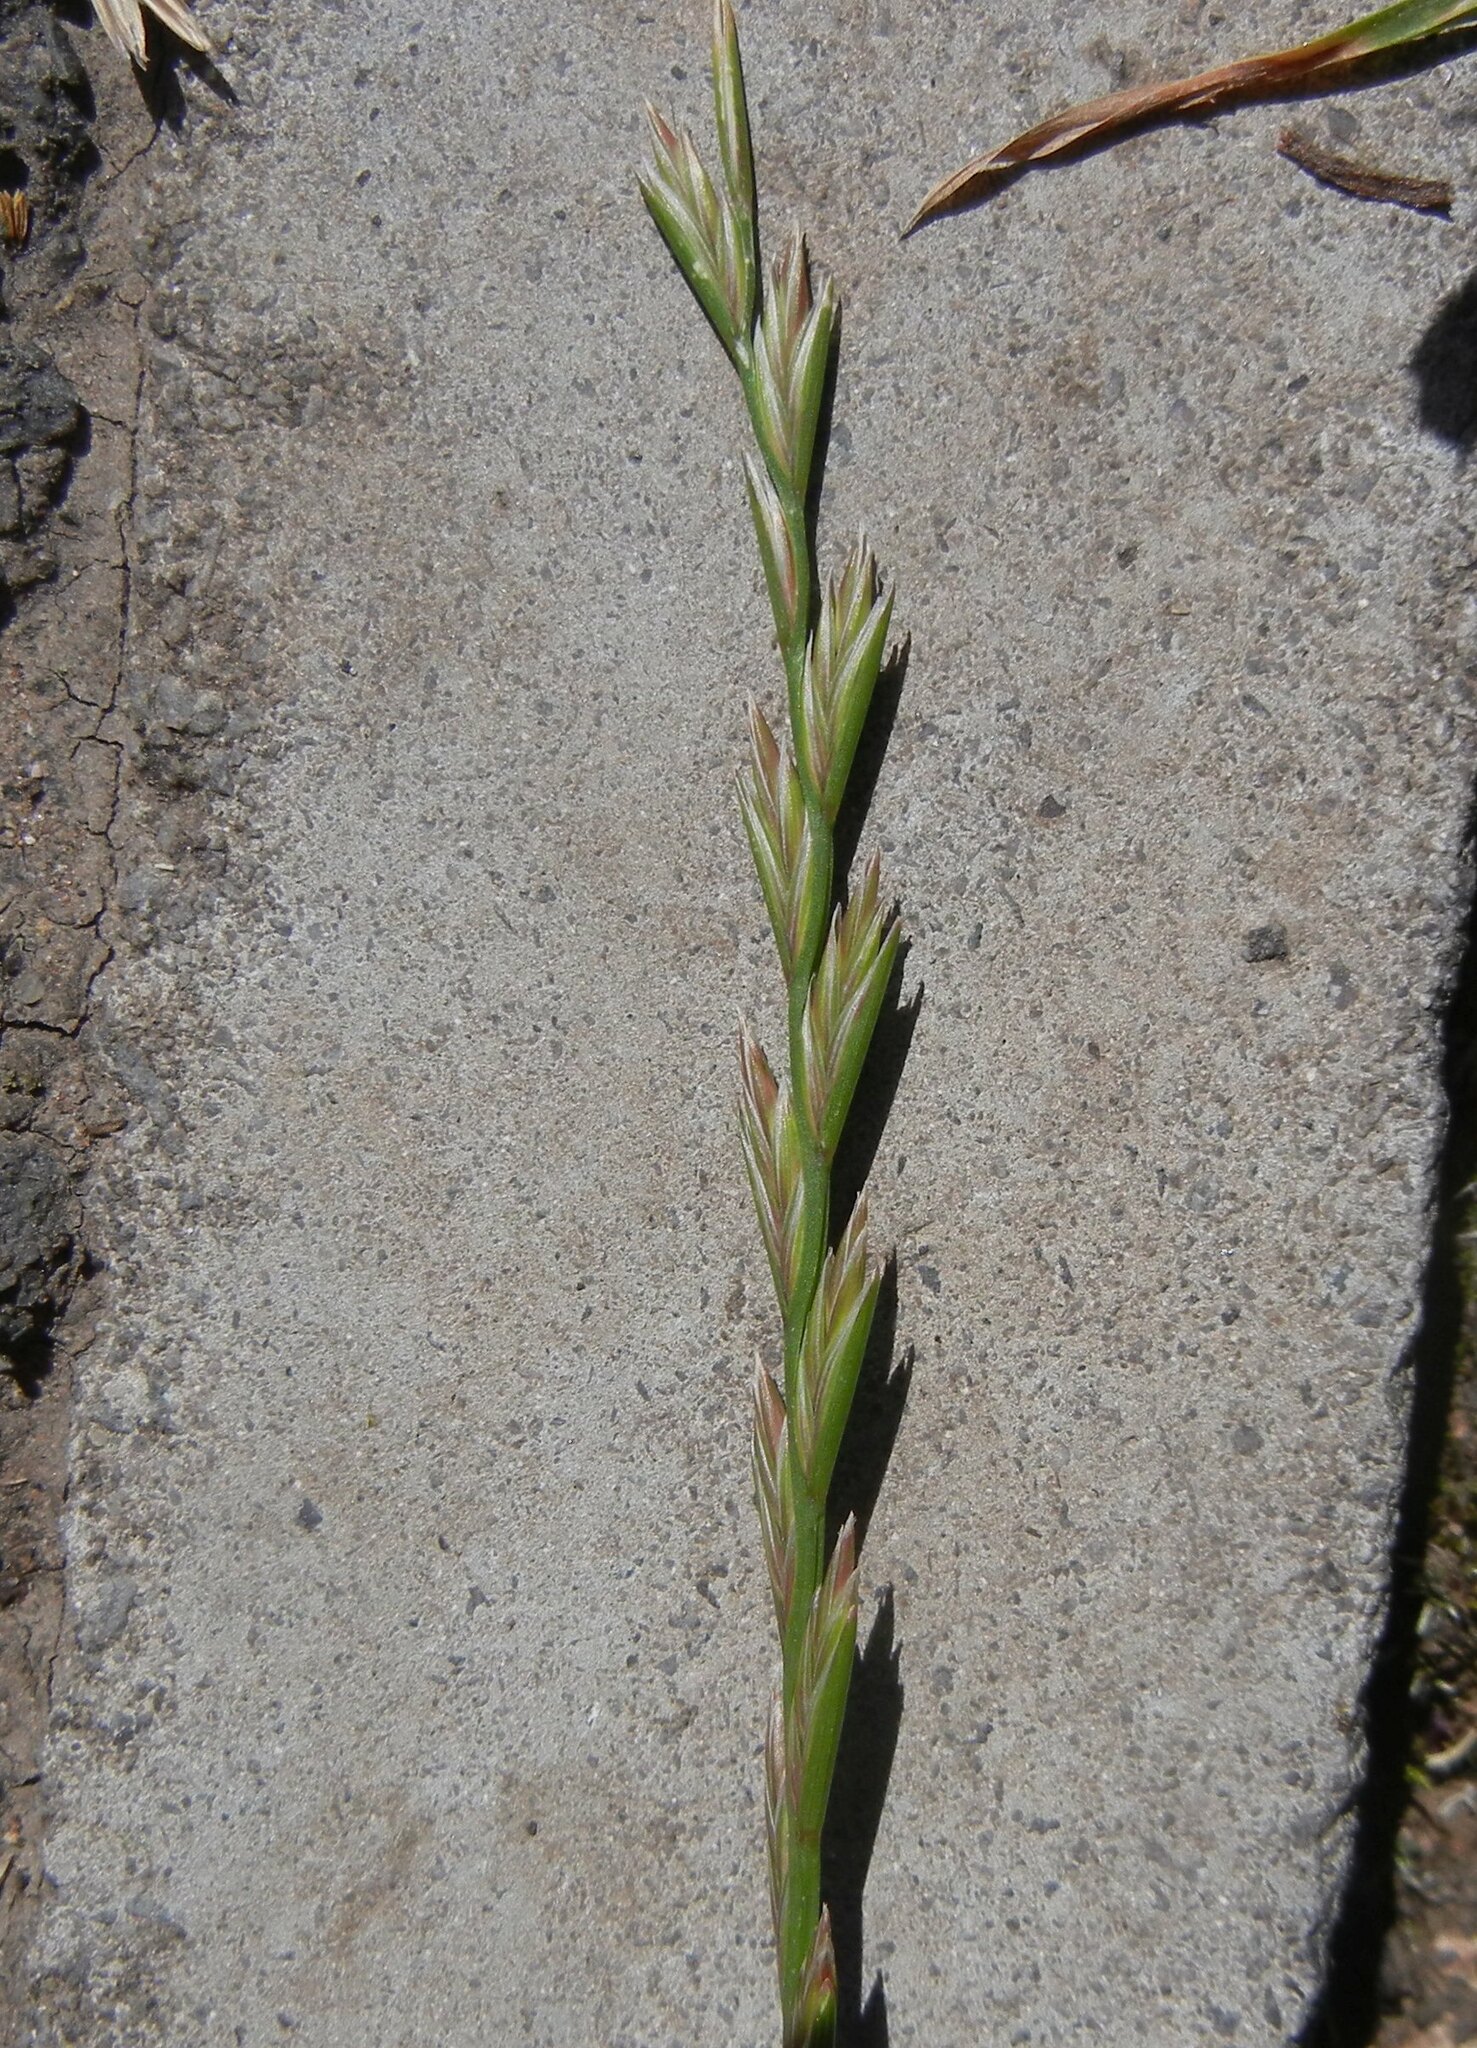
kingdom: Plantae
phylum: Tracheophyta
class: Liliopsida
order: Poales
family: Poaceae
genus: Lolium
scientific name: Lolium perenne
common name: Perennial ryegrass
